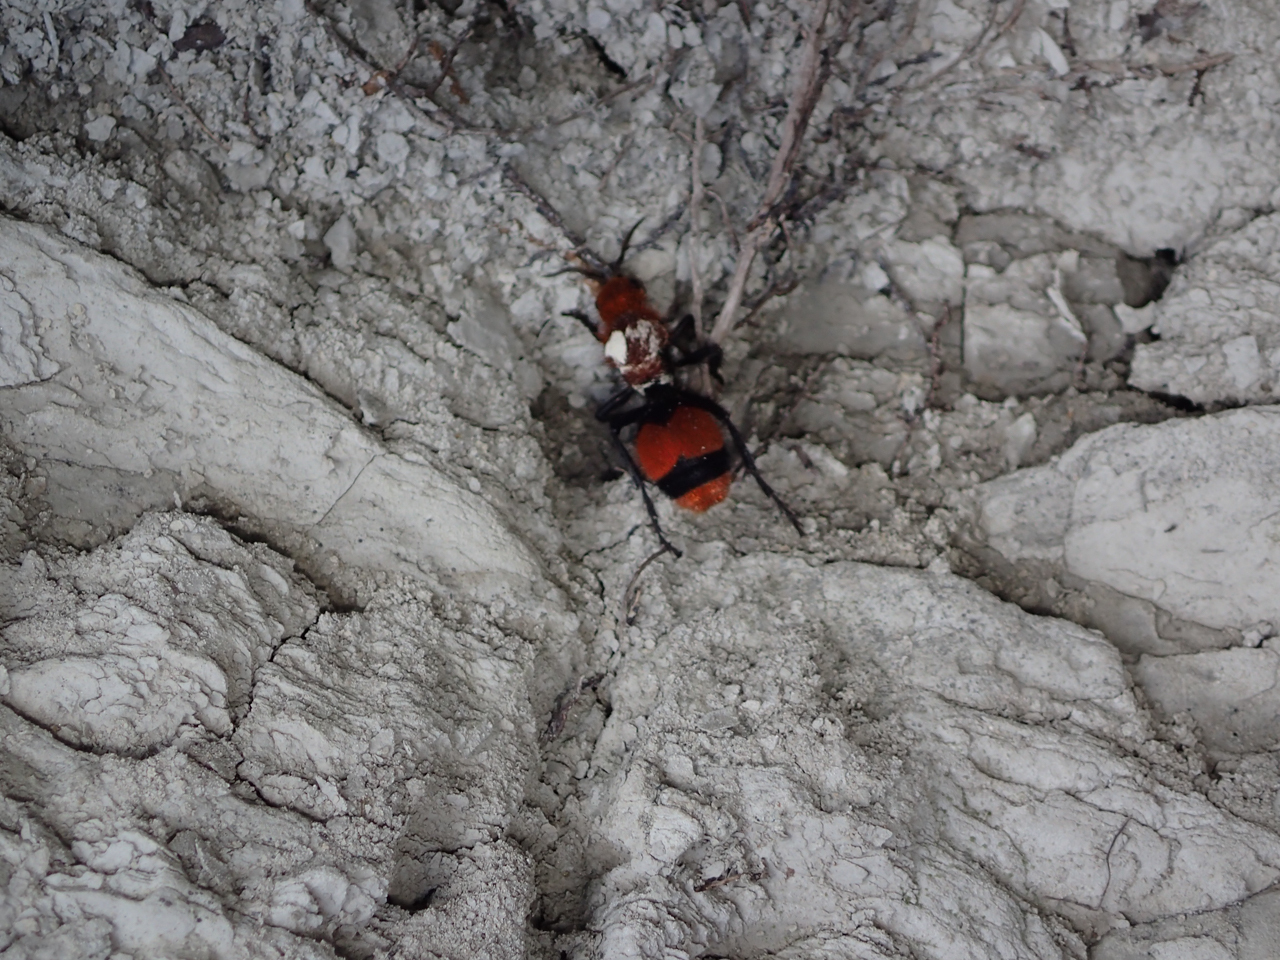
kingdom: Animalia
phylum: Arthropoda
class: Insecta
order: Hymenoptera
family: Mutillidae
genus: Dasymutilla
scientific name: Dasymutilla occidentalis
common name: Common eastern velvet ant
